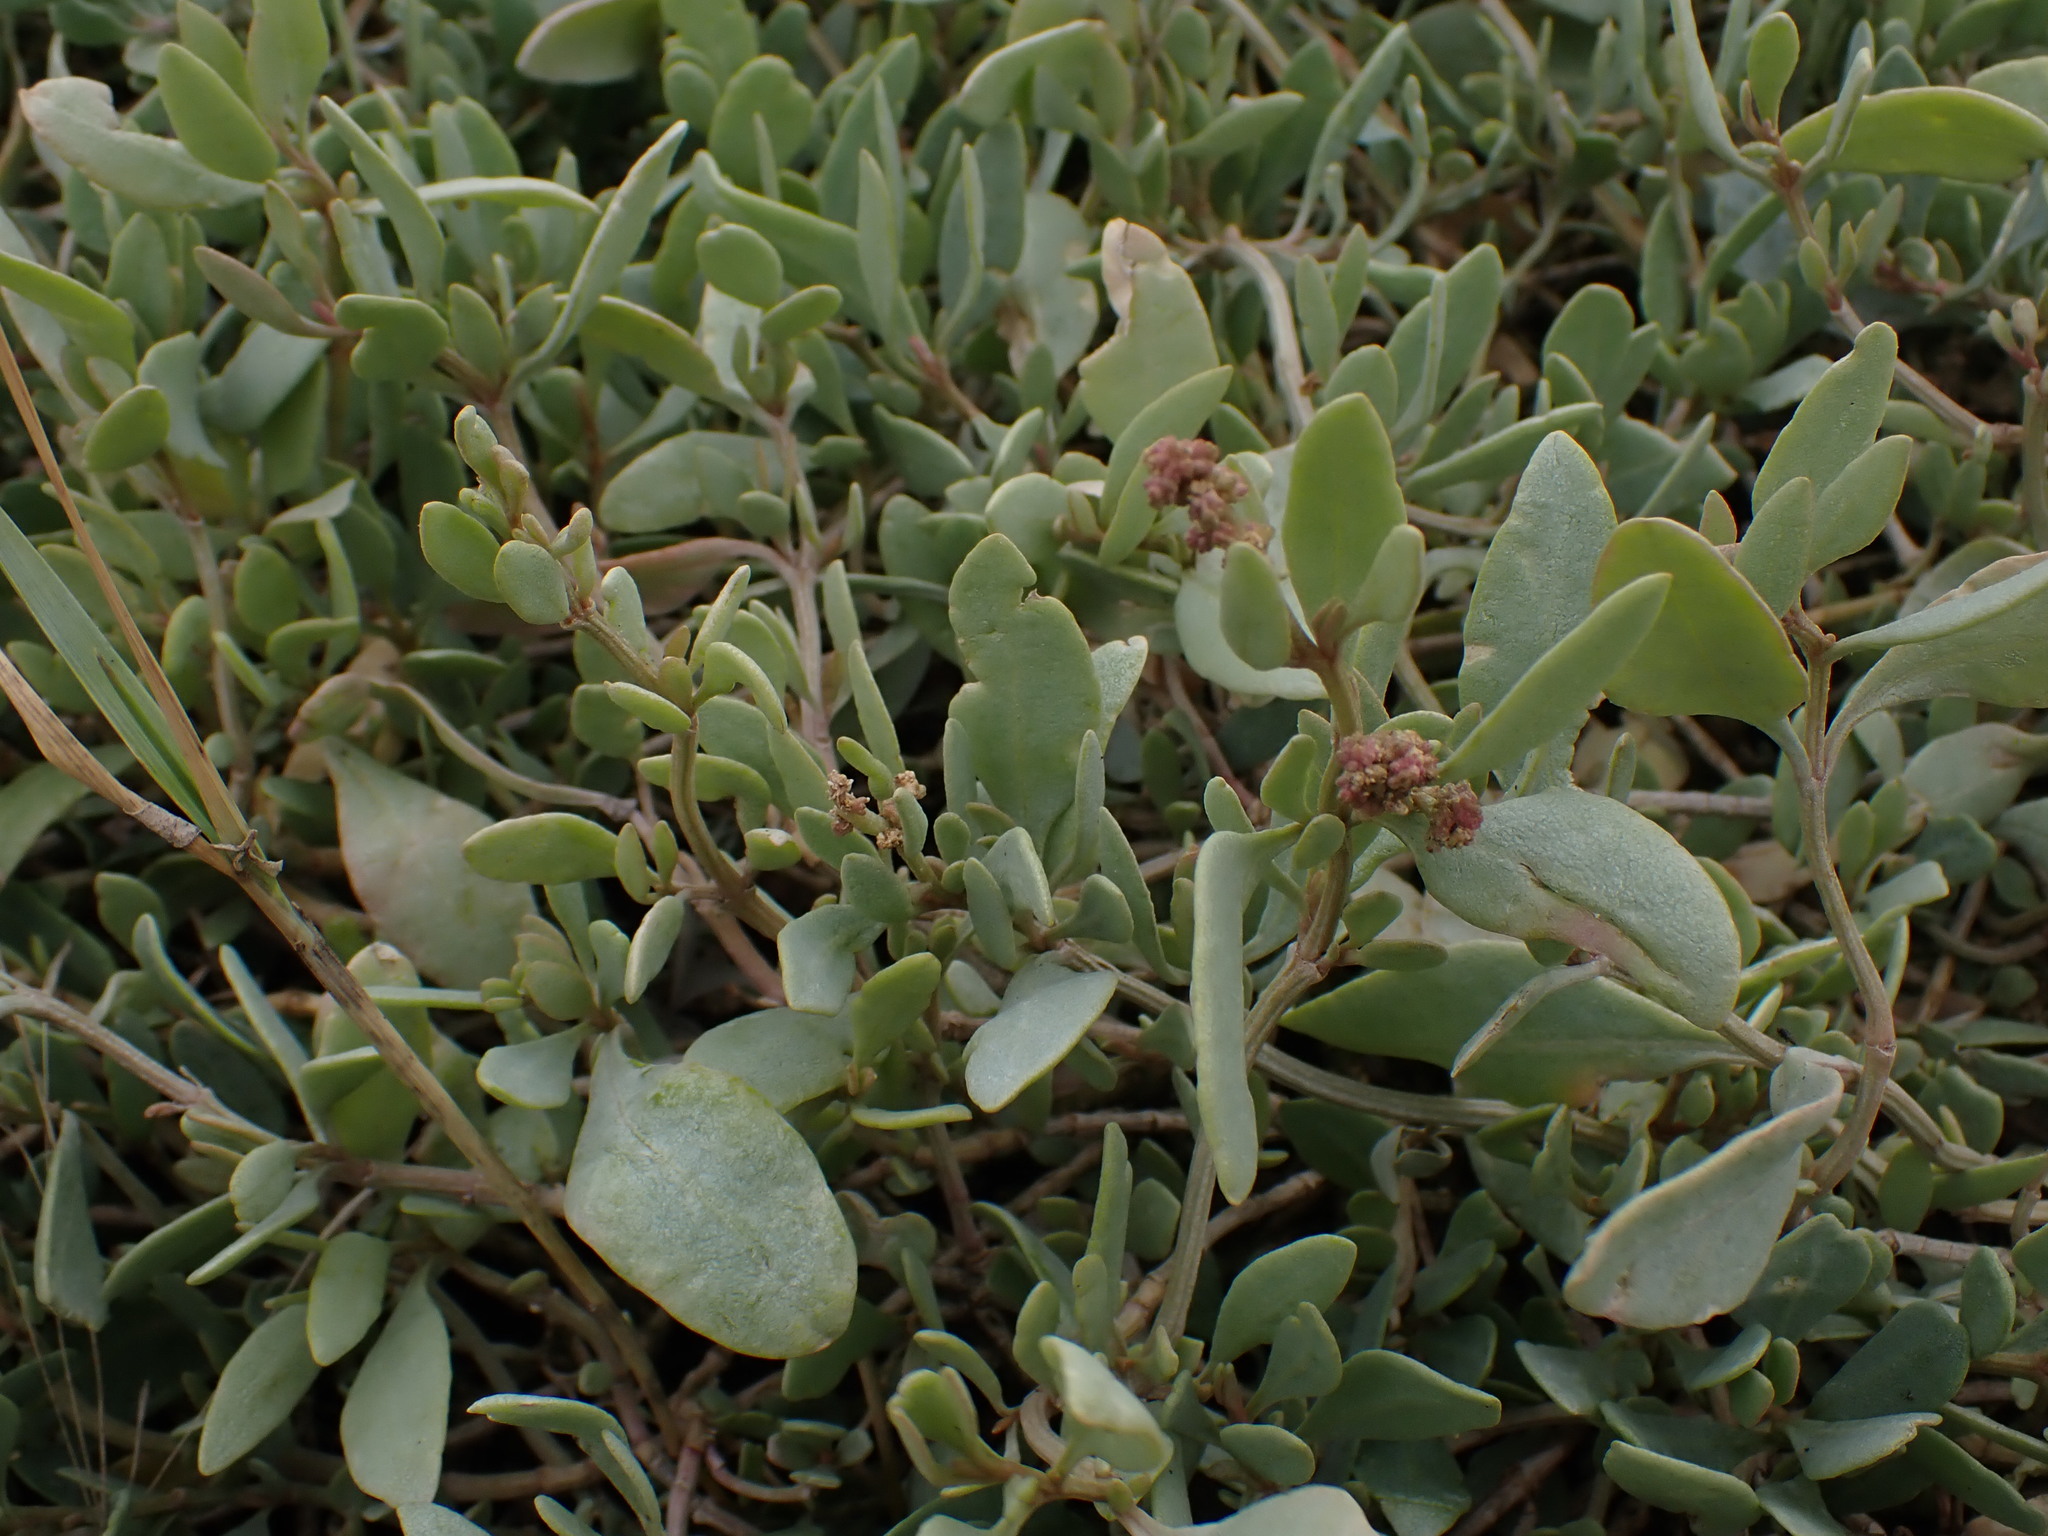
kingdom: Plantae
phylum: Tracheophyta
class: Magnoliopsida
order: Caryophyllales
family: Amaranthaceae
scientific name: Amaranthaceae
